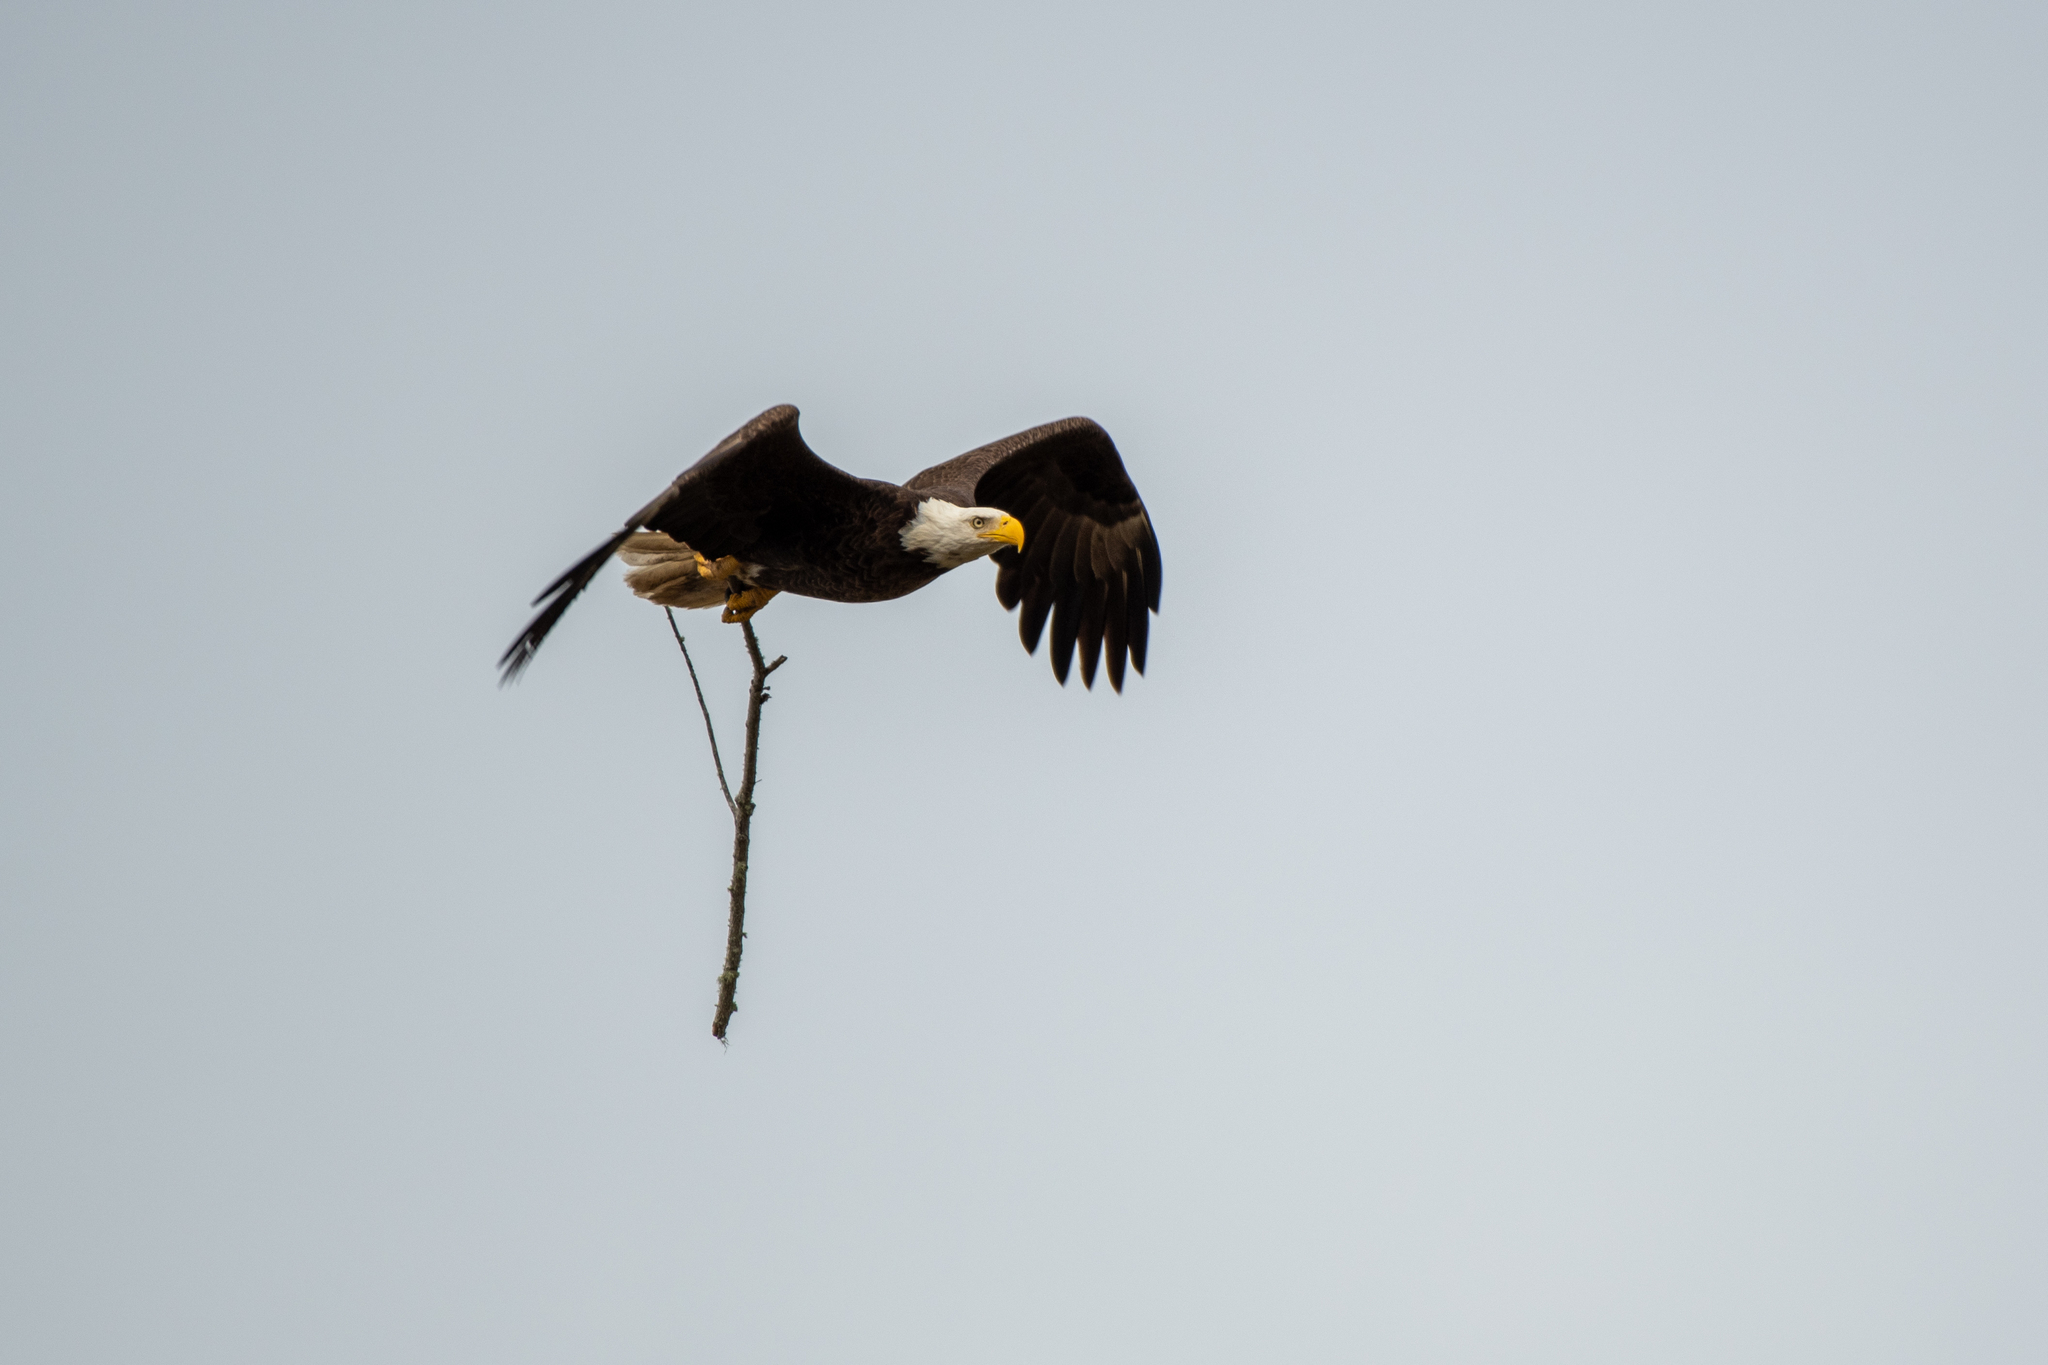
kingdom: Animalia
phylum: Chordata
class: Aves
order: Accipitriformes
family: Accipitridae
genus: Haliaeetus
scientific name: Haliaeetus leucocephalus
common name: Bald eagle
